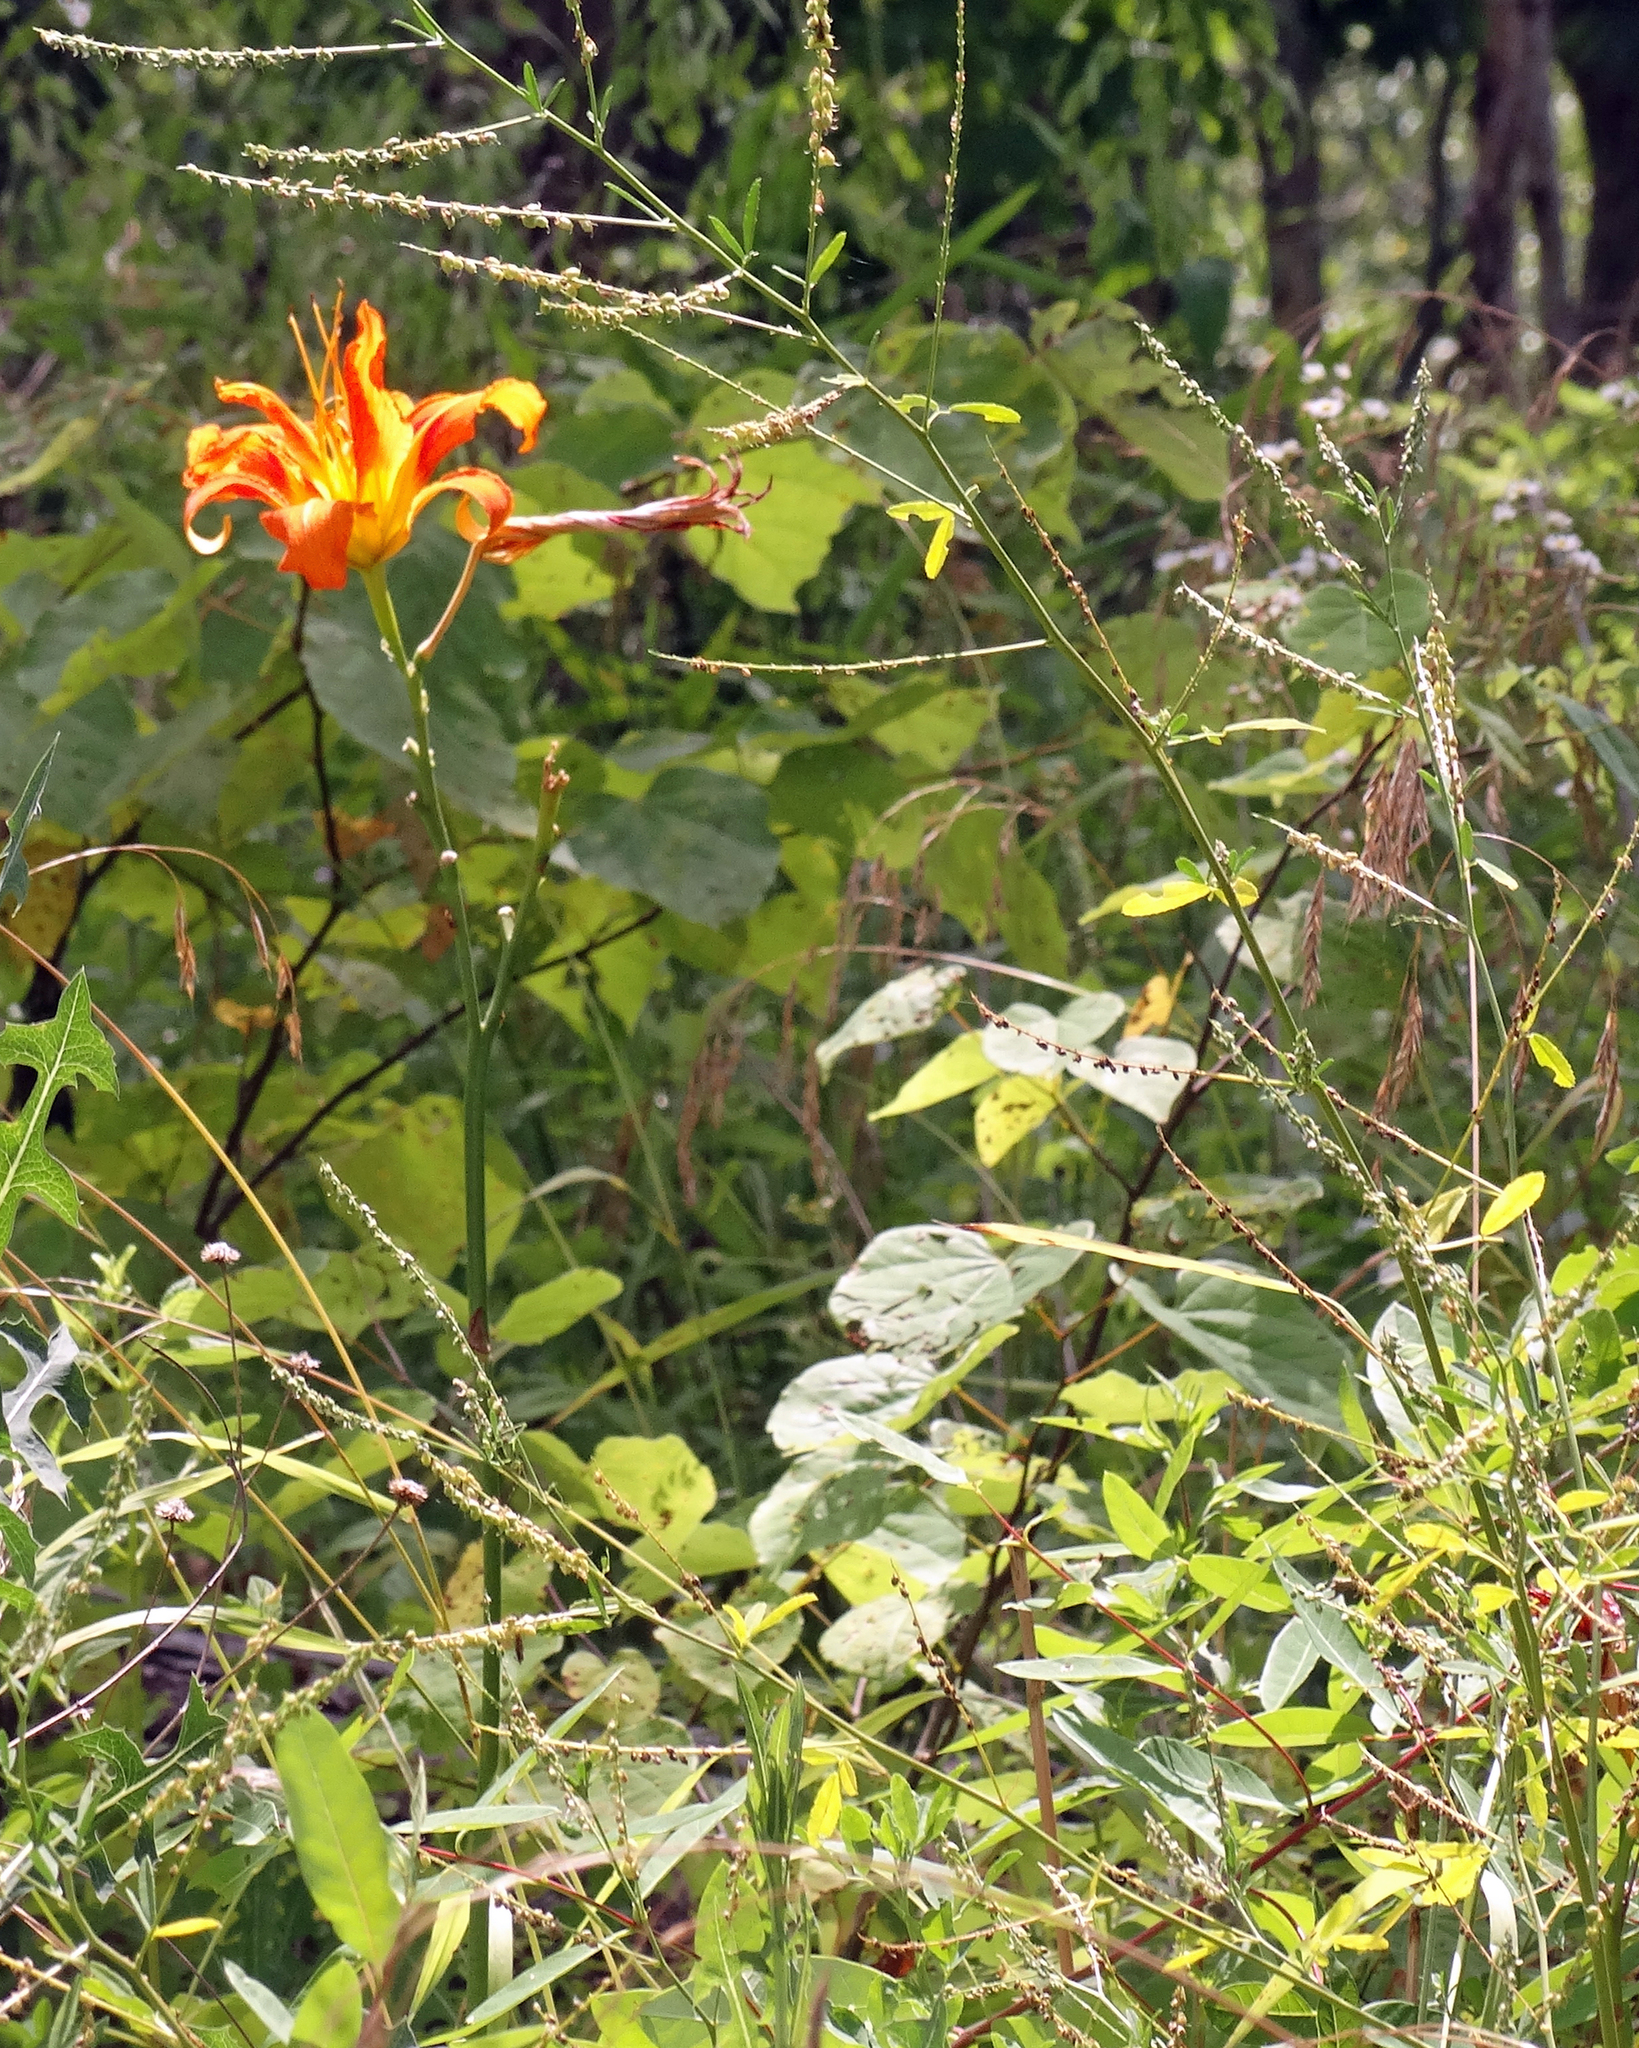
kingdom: Plantae
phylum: Tracheophyta
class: Liliopsida
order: Asparagales
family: Asphodelaceae
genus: Hemerocallis
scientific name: Hemerocallis fulva
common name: Orange day-lily
